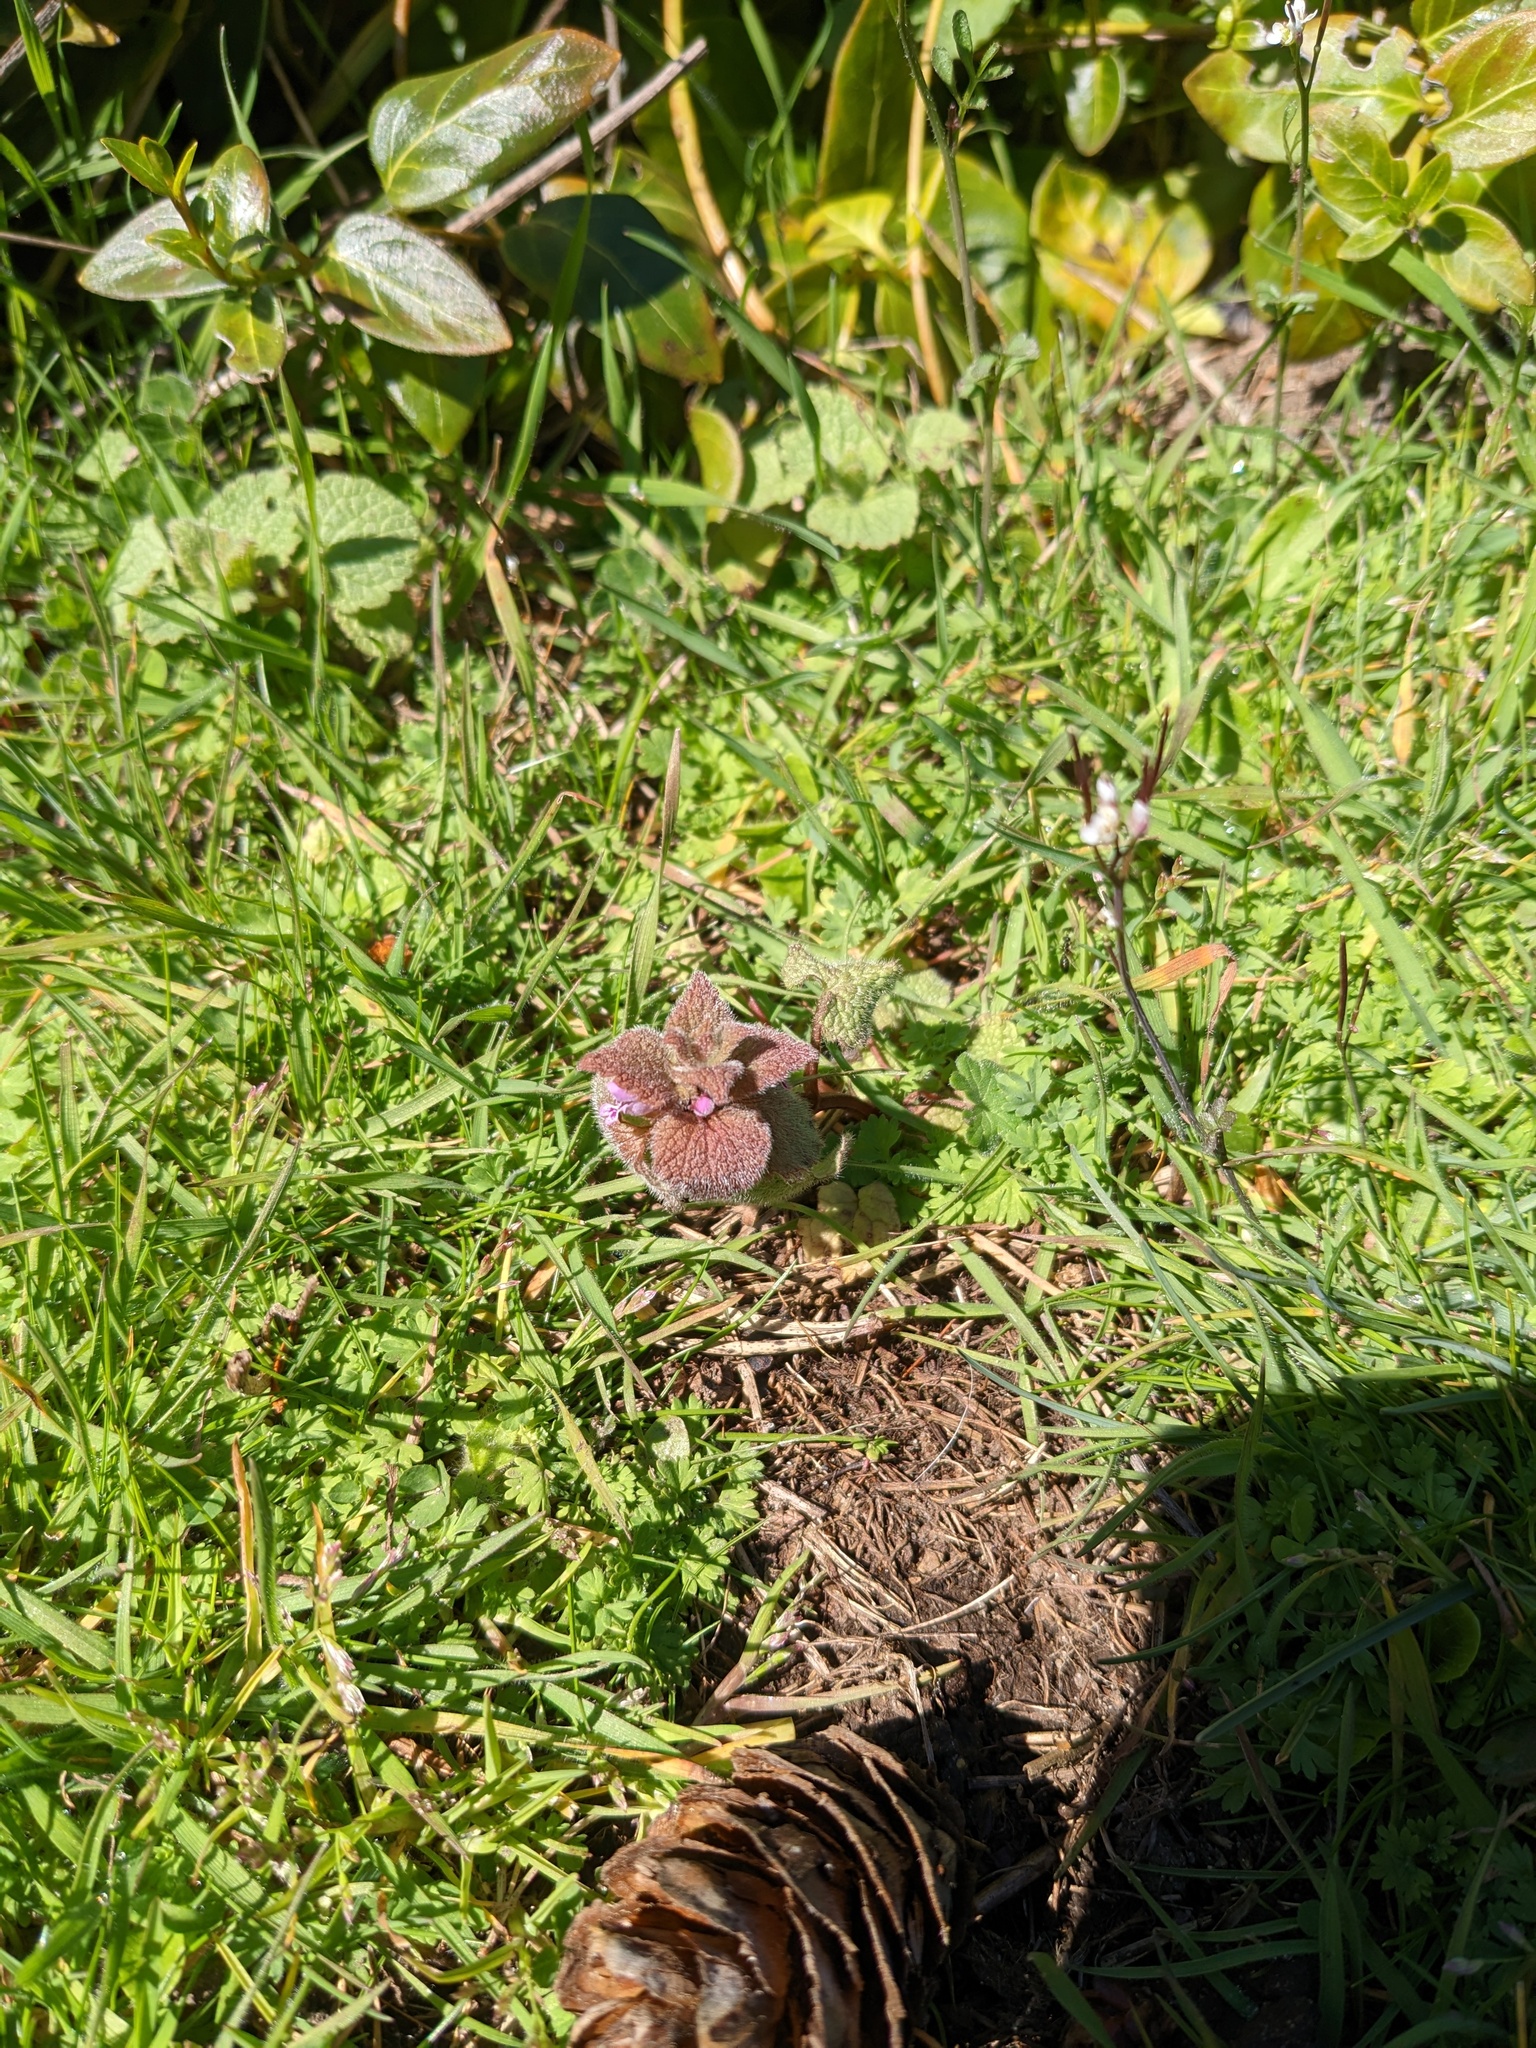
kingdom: Plantae
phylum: Tracheophyta
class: Magnoliopsida
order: Lamiales
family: Lamiaceae
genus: Lamium
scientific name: Lamium purpureum
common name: Red dead-nettle
